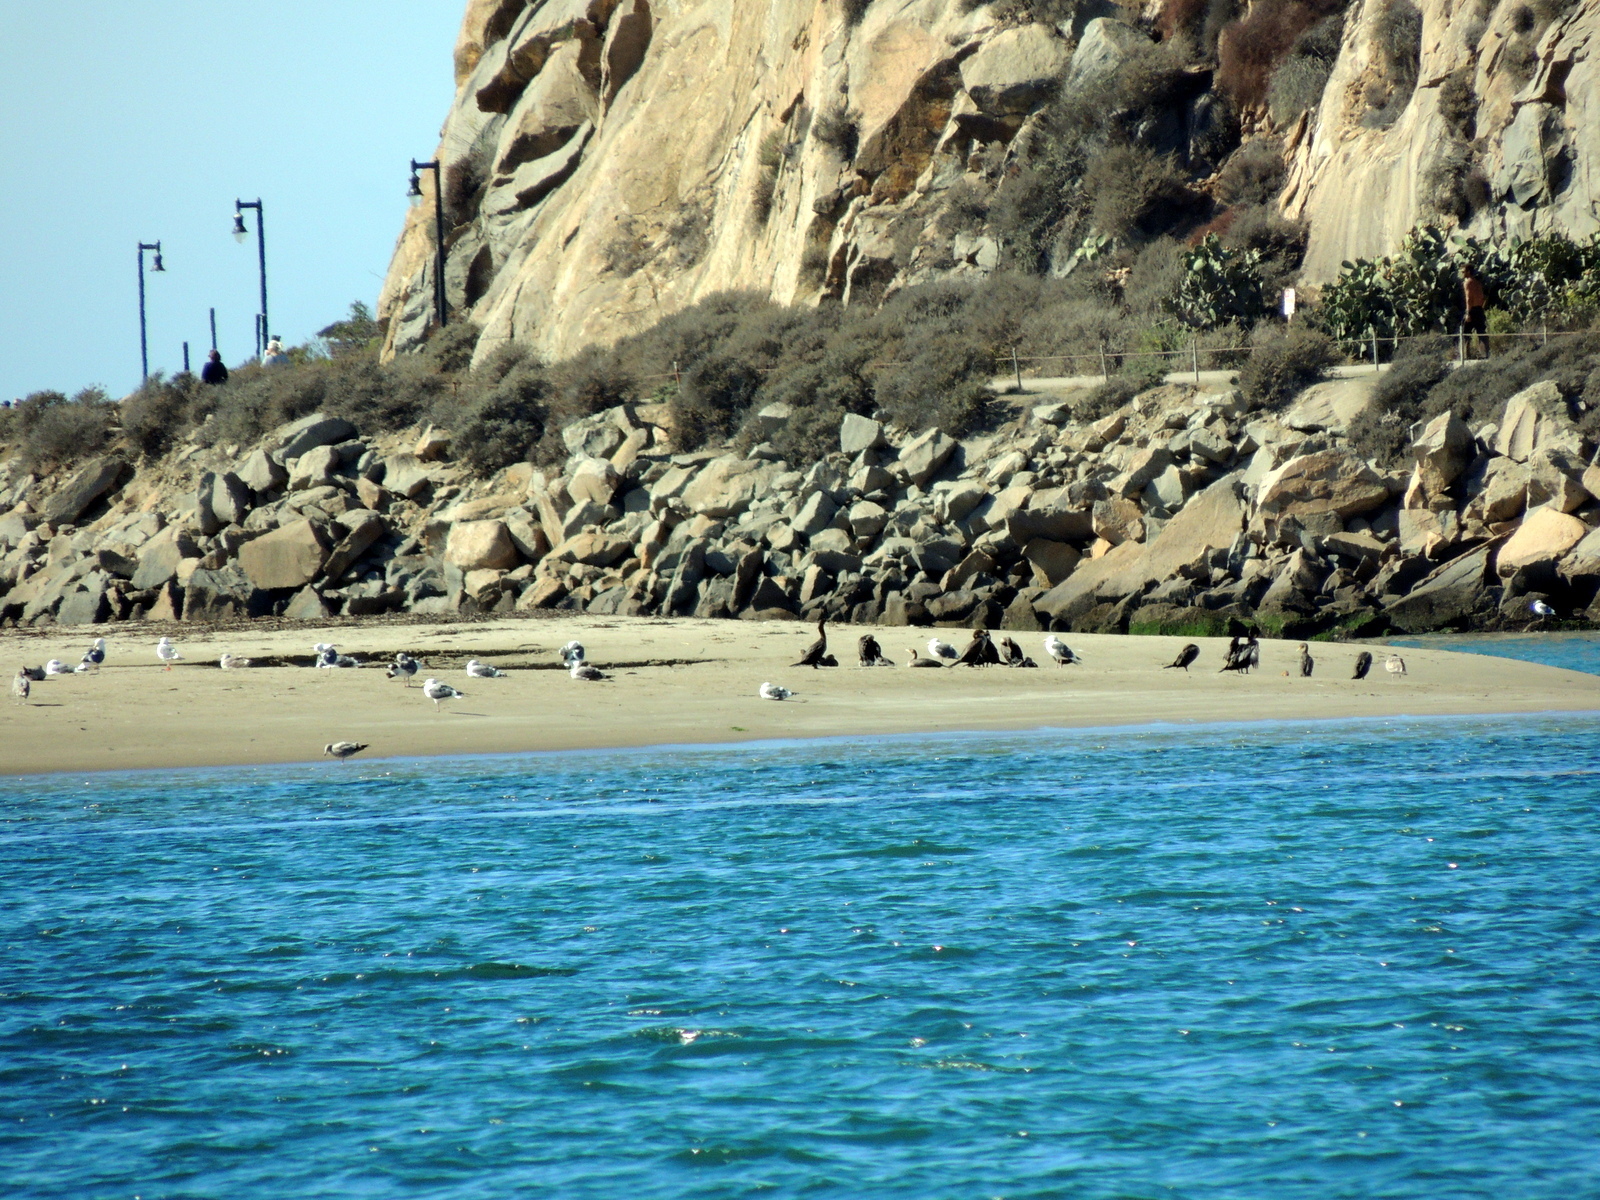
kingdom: Animalia
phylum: Chordata
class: Aves
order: Charadriiformes
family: Laridae
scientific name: Laridae
